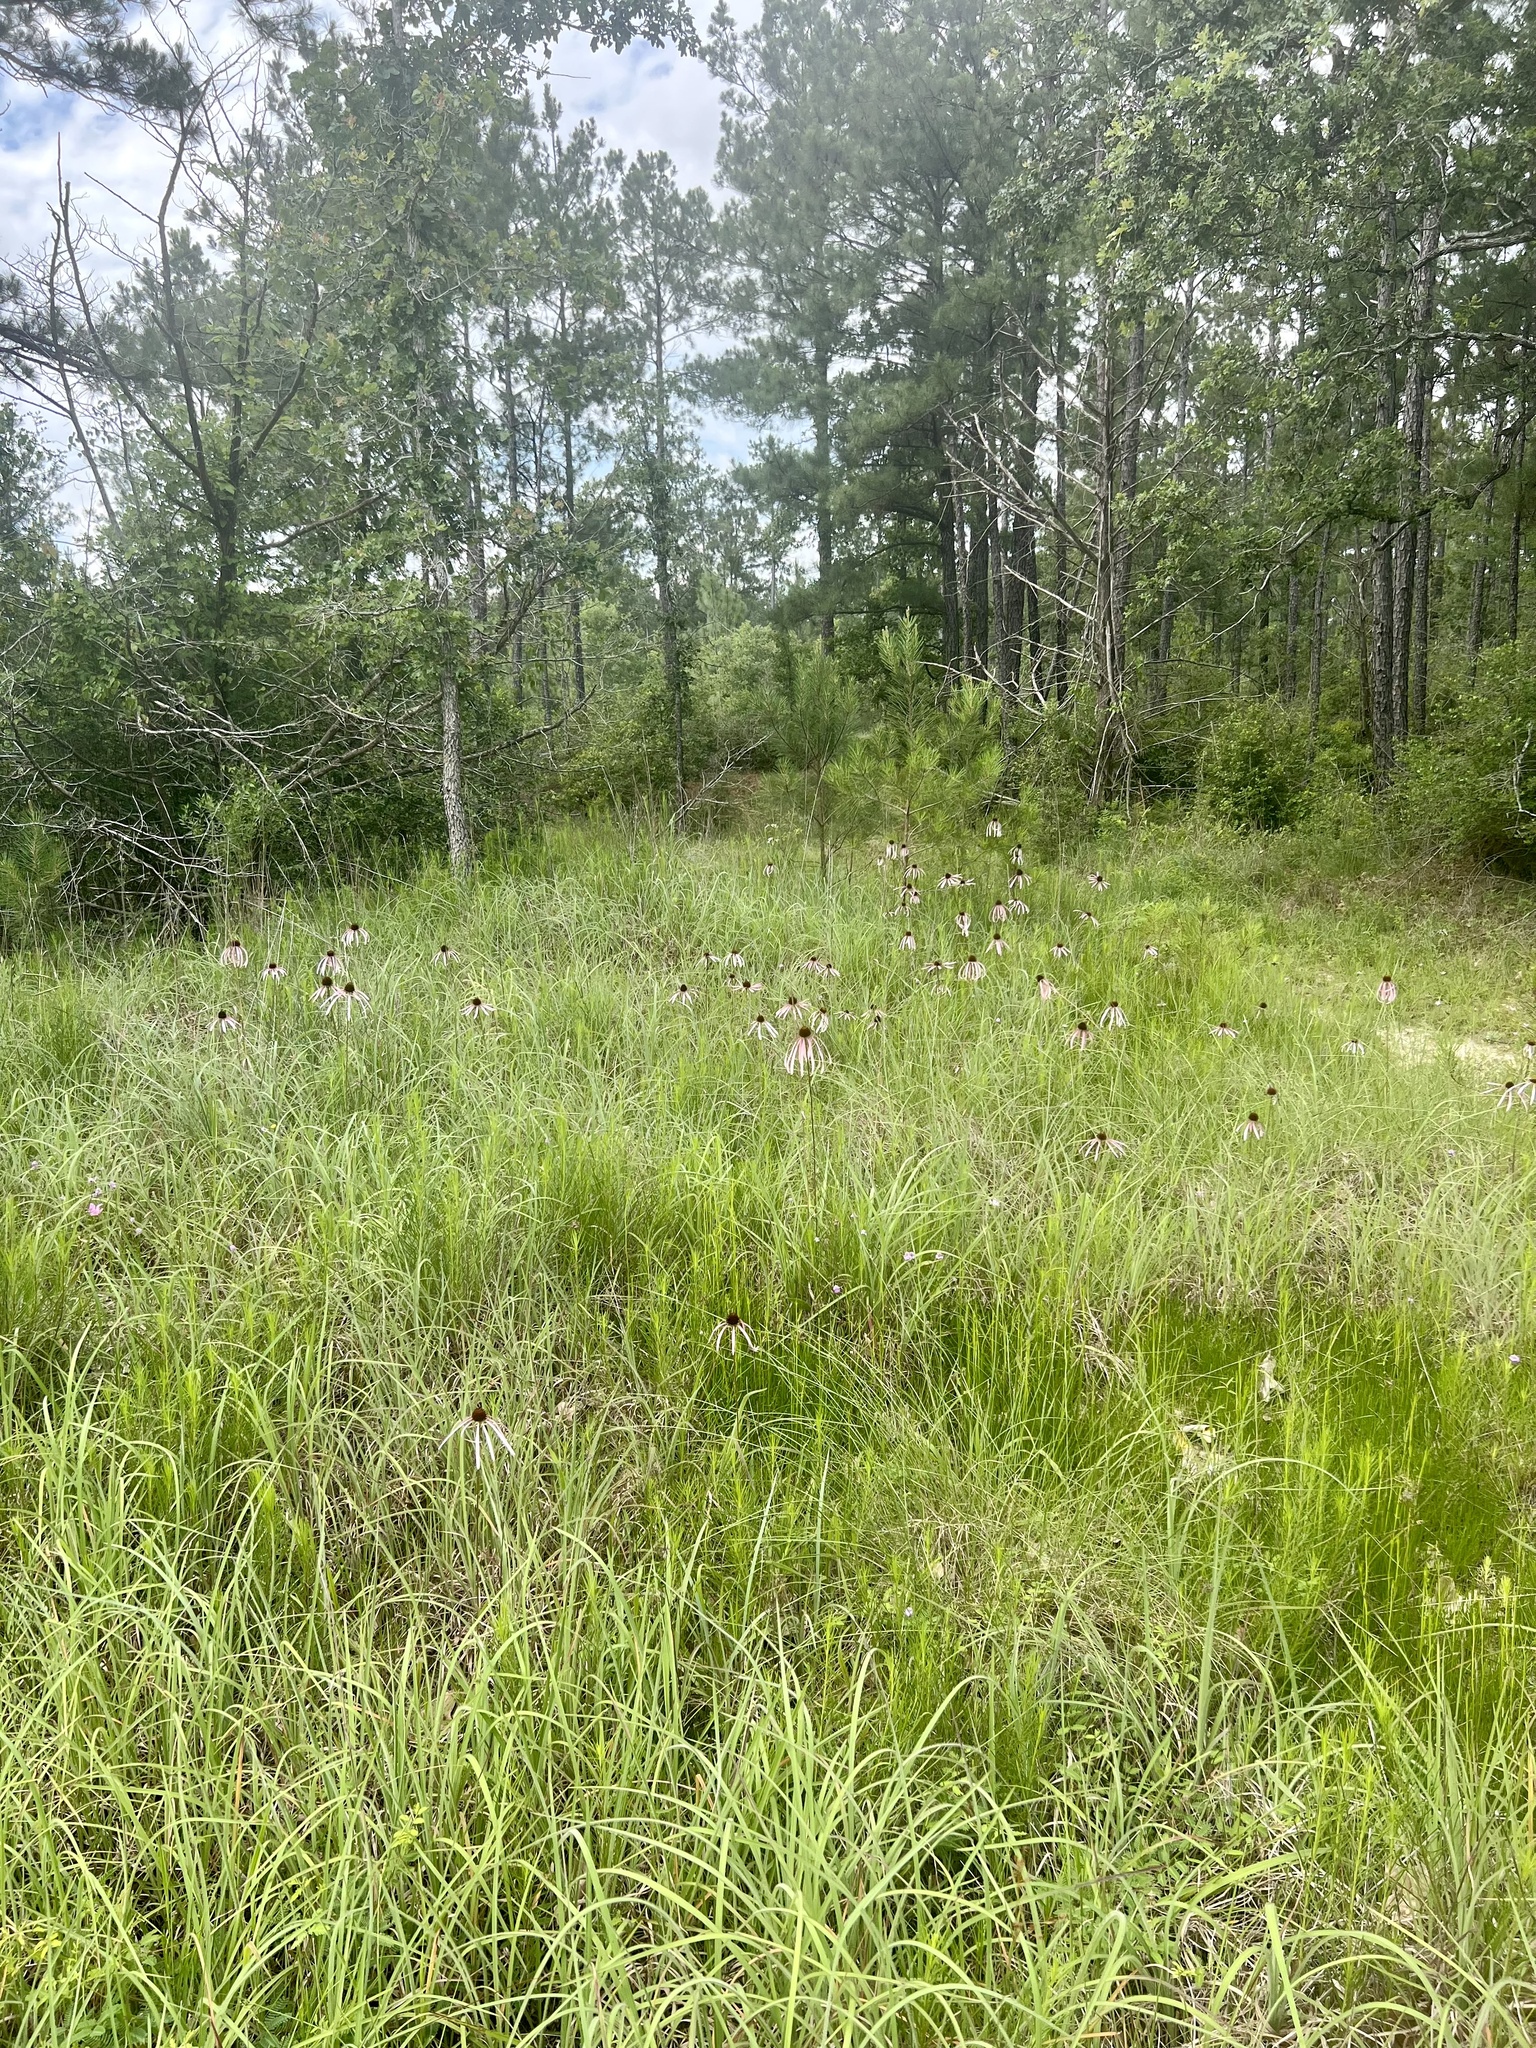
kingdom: Plantae
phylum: Tracheophyta
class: Magnoliopsida
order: Asterales
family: Asteraceae
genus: Echinacea
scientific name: Echinacea sanguinea
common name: Sanguine purple-coneflower
